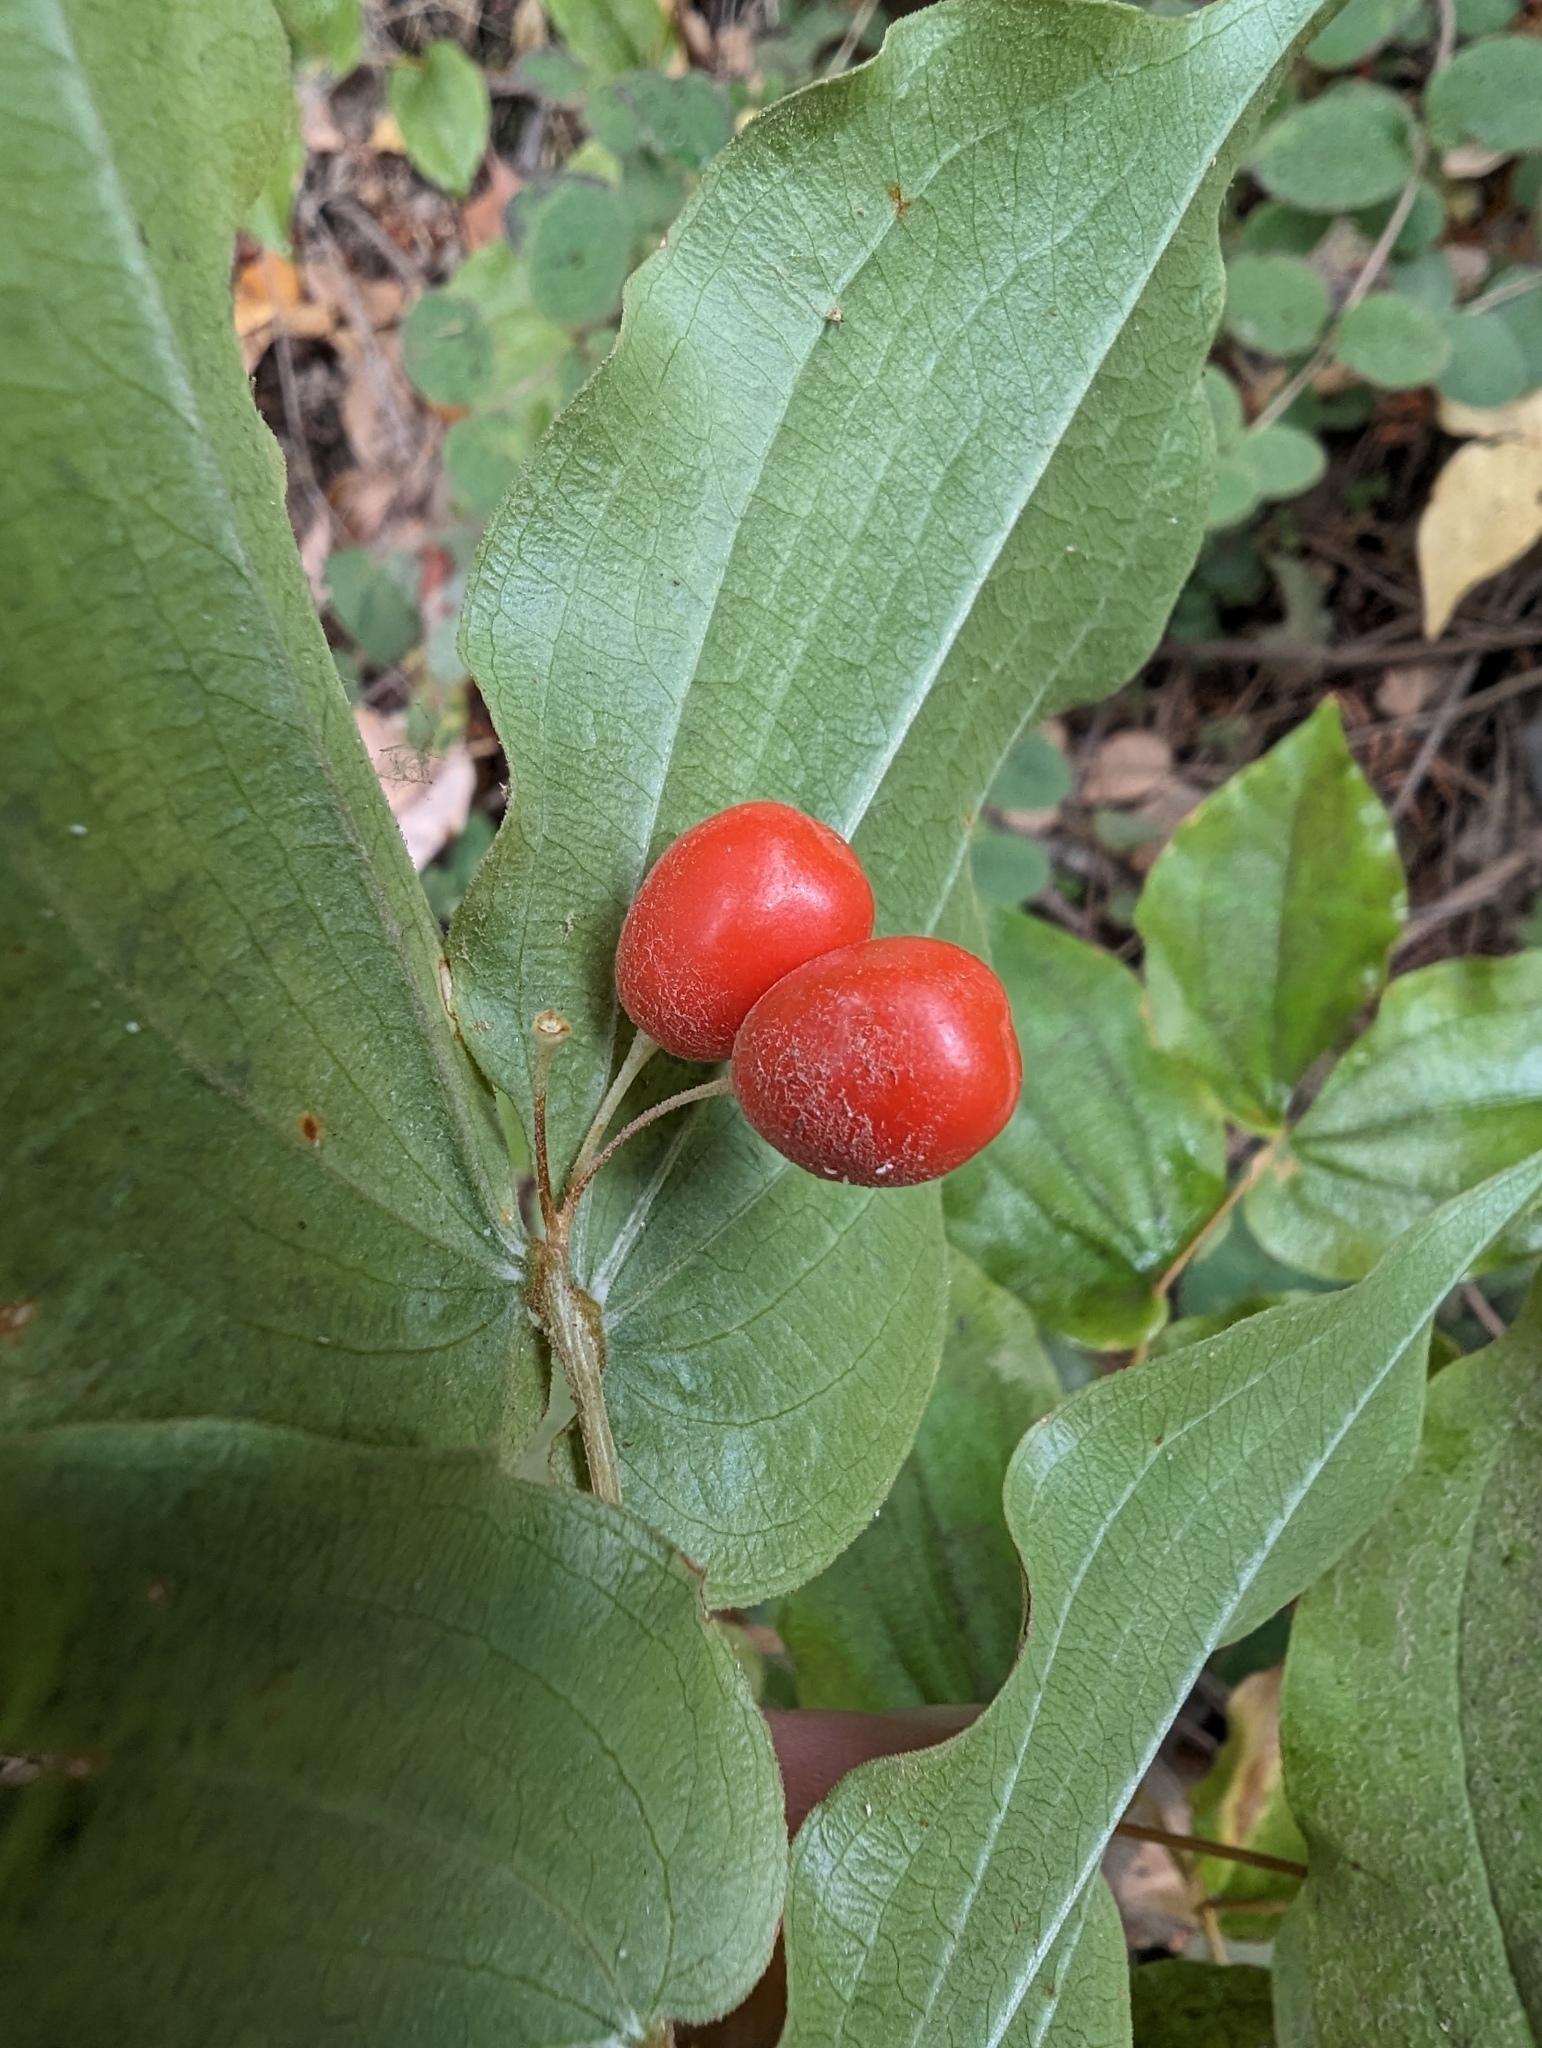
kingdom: Plantae
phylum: Tracheophyta
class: Liliopsida
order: Liliales
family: Liliaceae
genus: Prosartes
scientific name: Prosartes hookeri
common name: Fairy-bells
